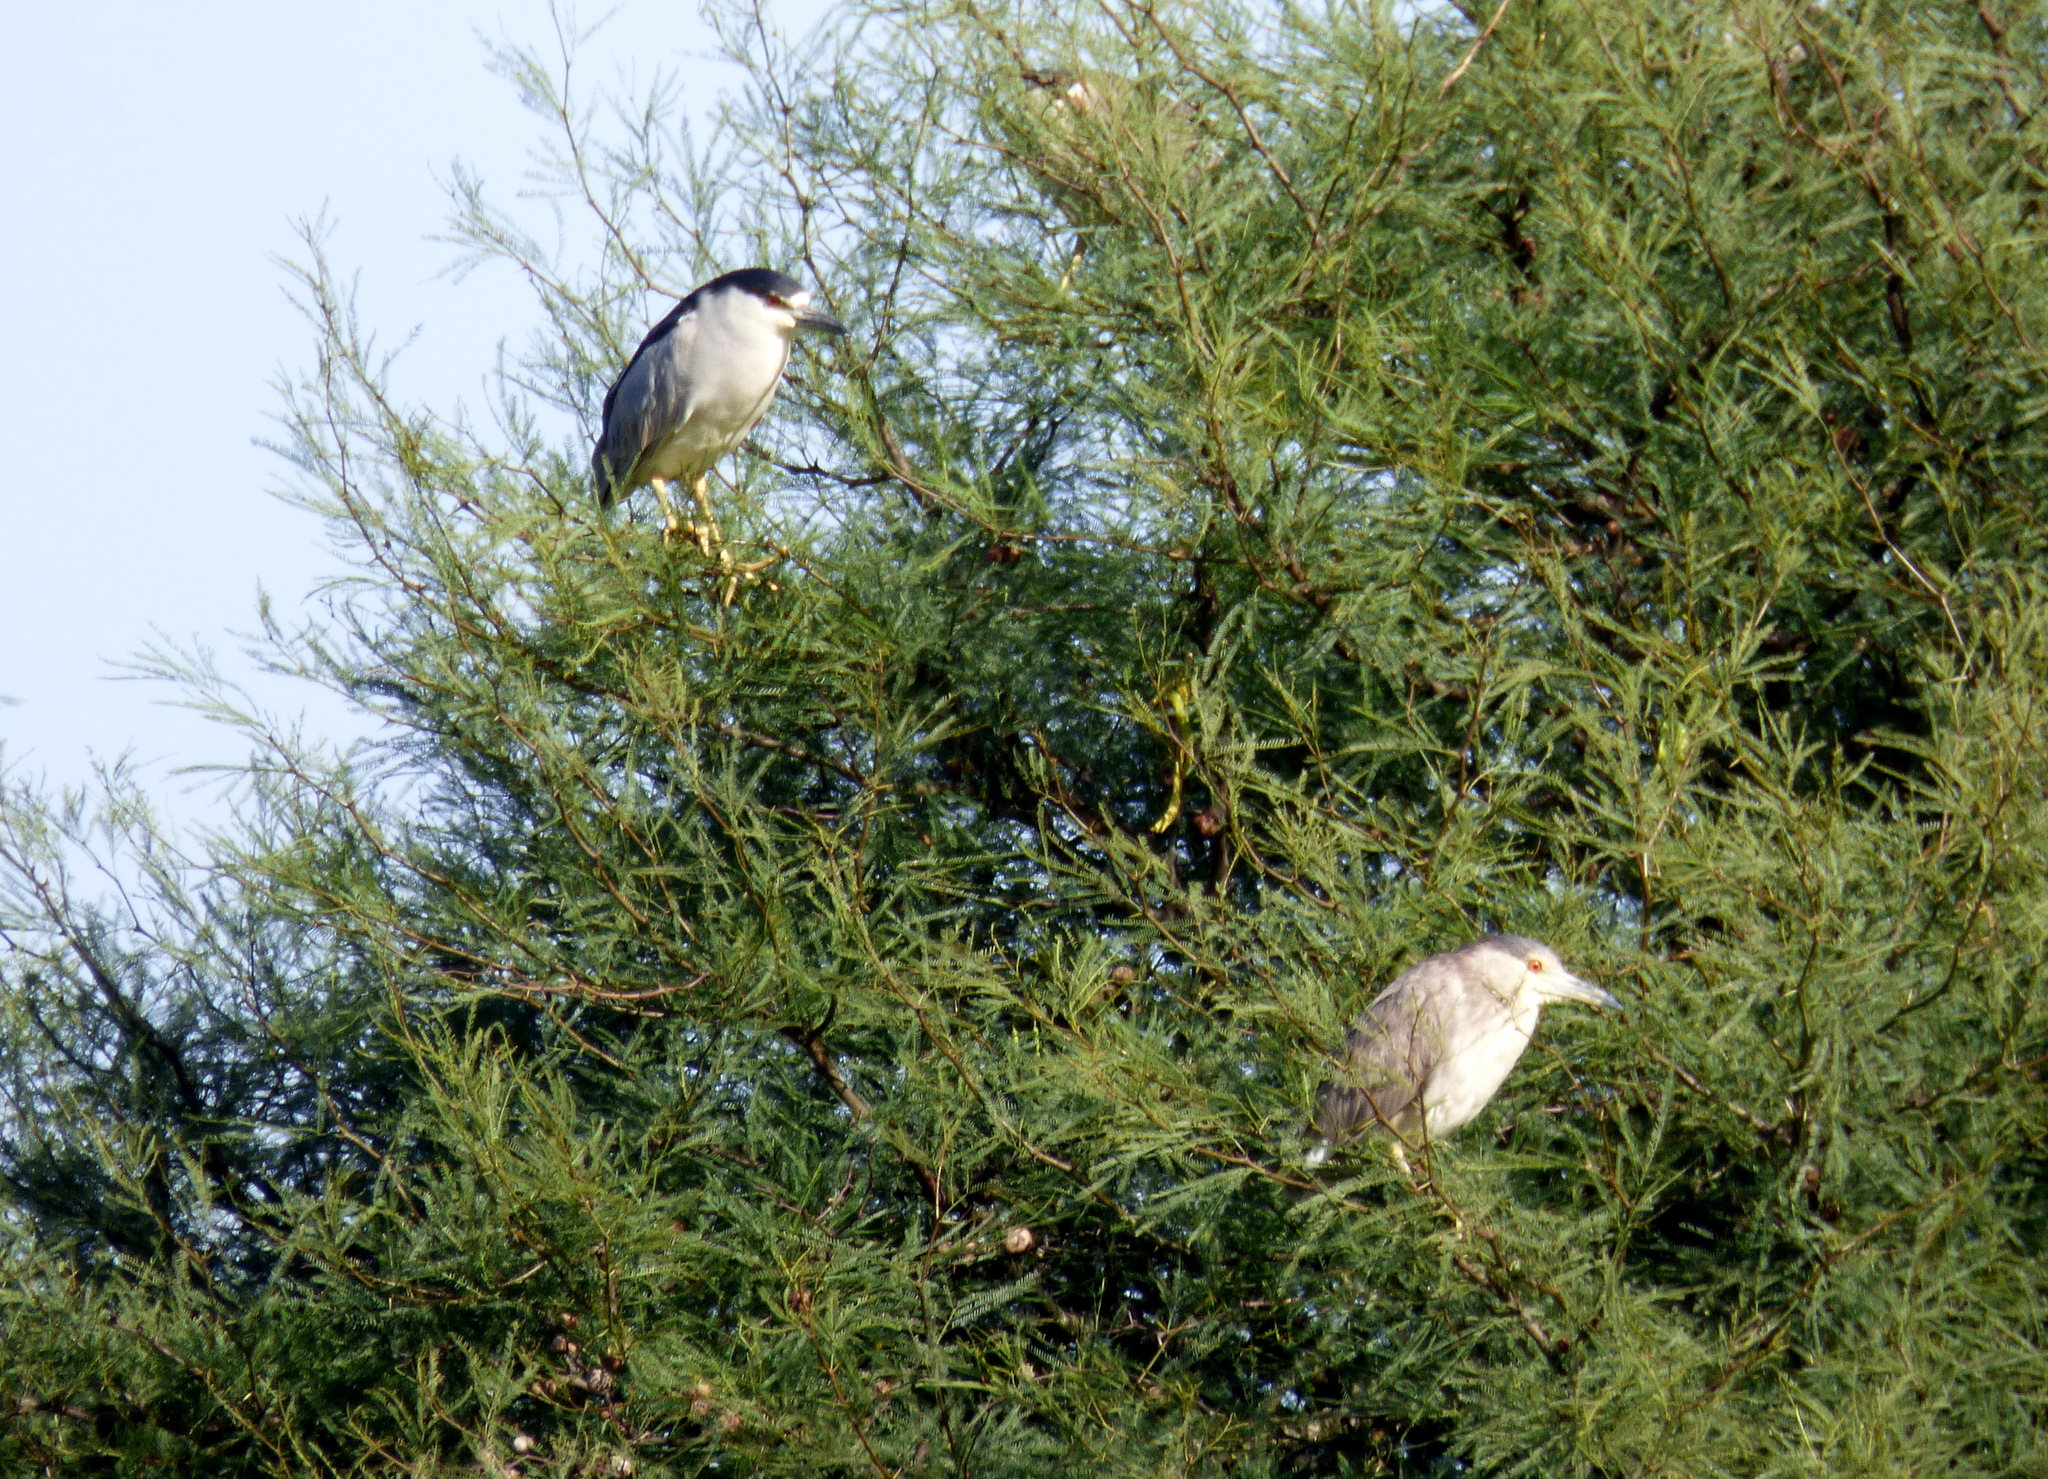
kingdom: Animalia
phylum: Chordata
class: Aves
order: Pelecaniformes
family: Ardeidae
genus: Nycticorax
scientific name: Nycticorax nycticorax
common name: Black-crowned night heron
